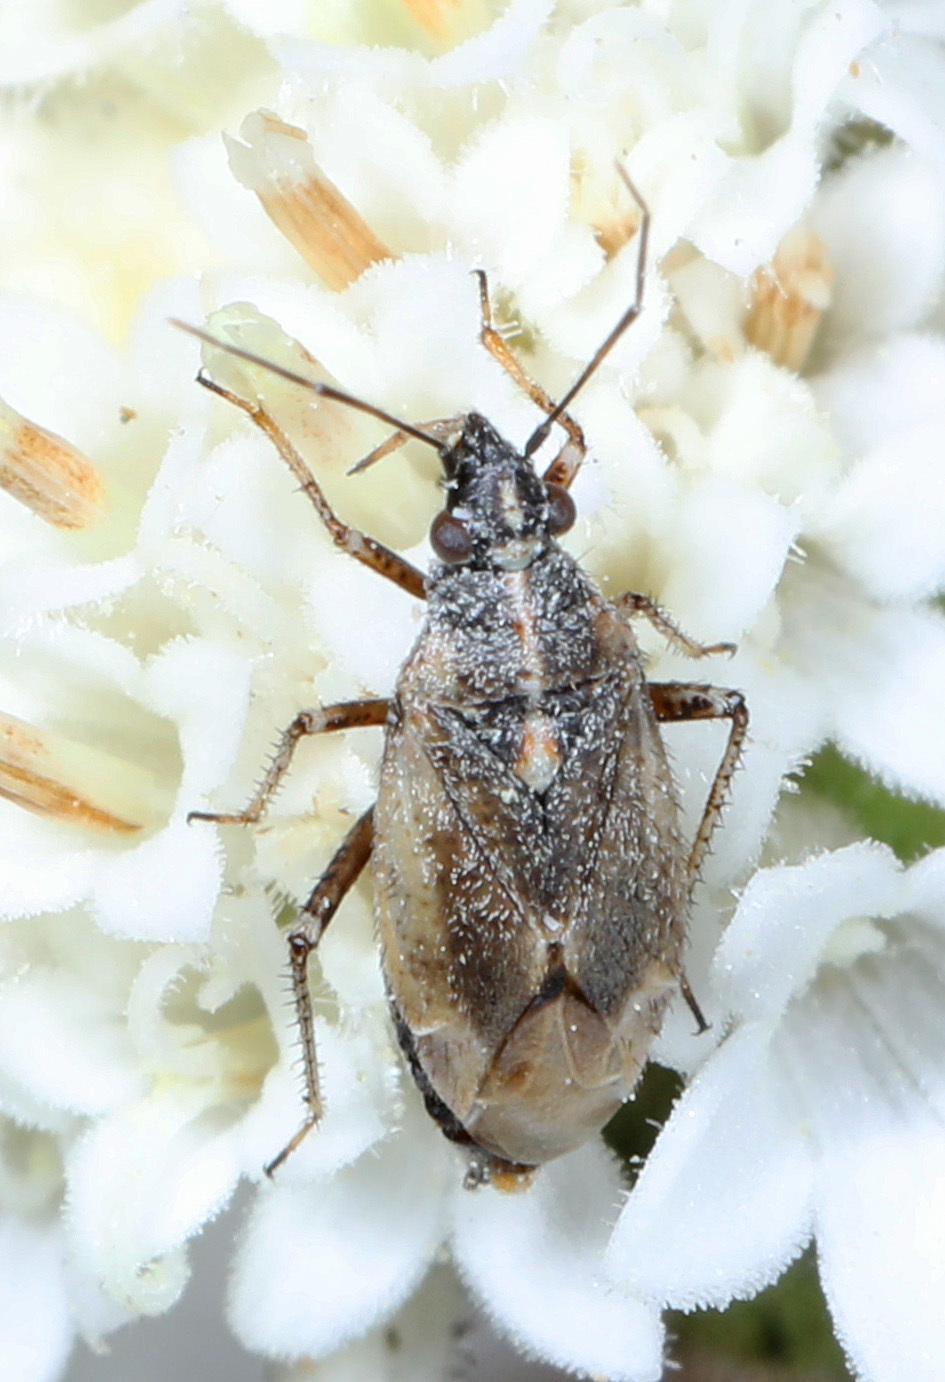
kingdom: Animalia
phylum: Arthropoda
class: Insecta
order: Hemiptera
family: Miridae
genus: Hoplomachidea
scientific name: Hoplomachidea consors
